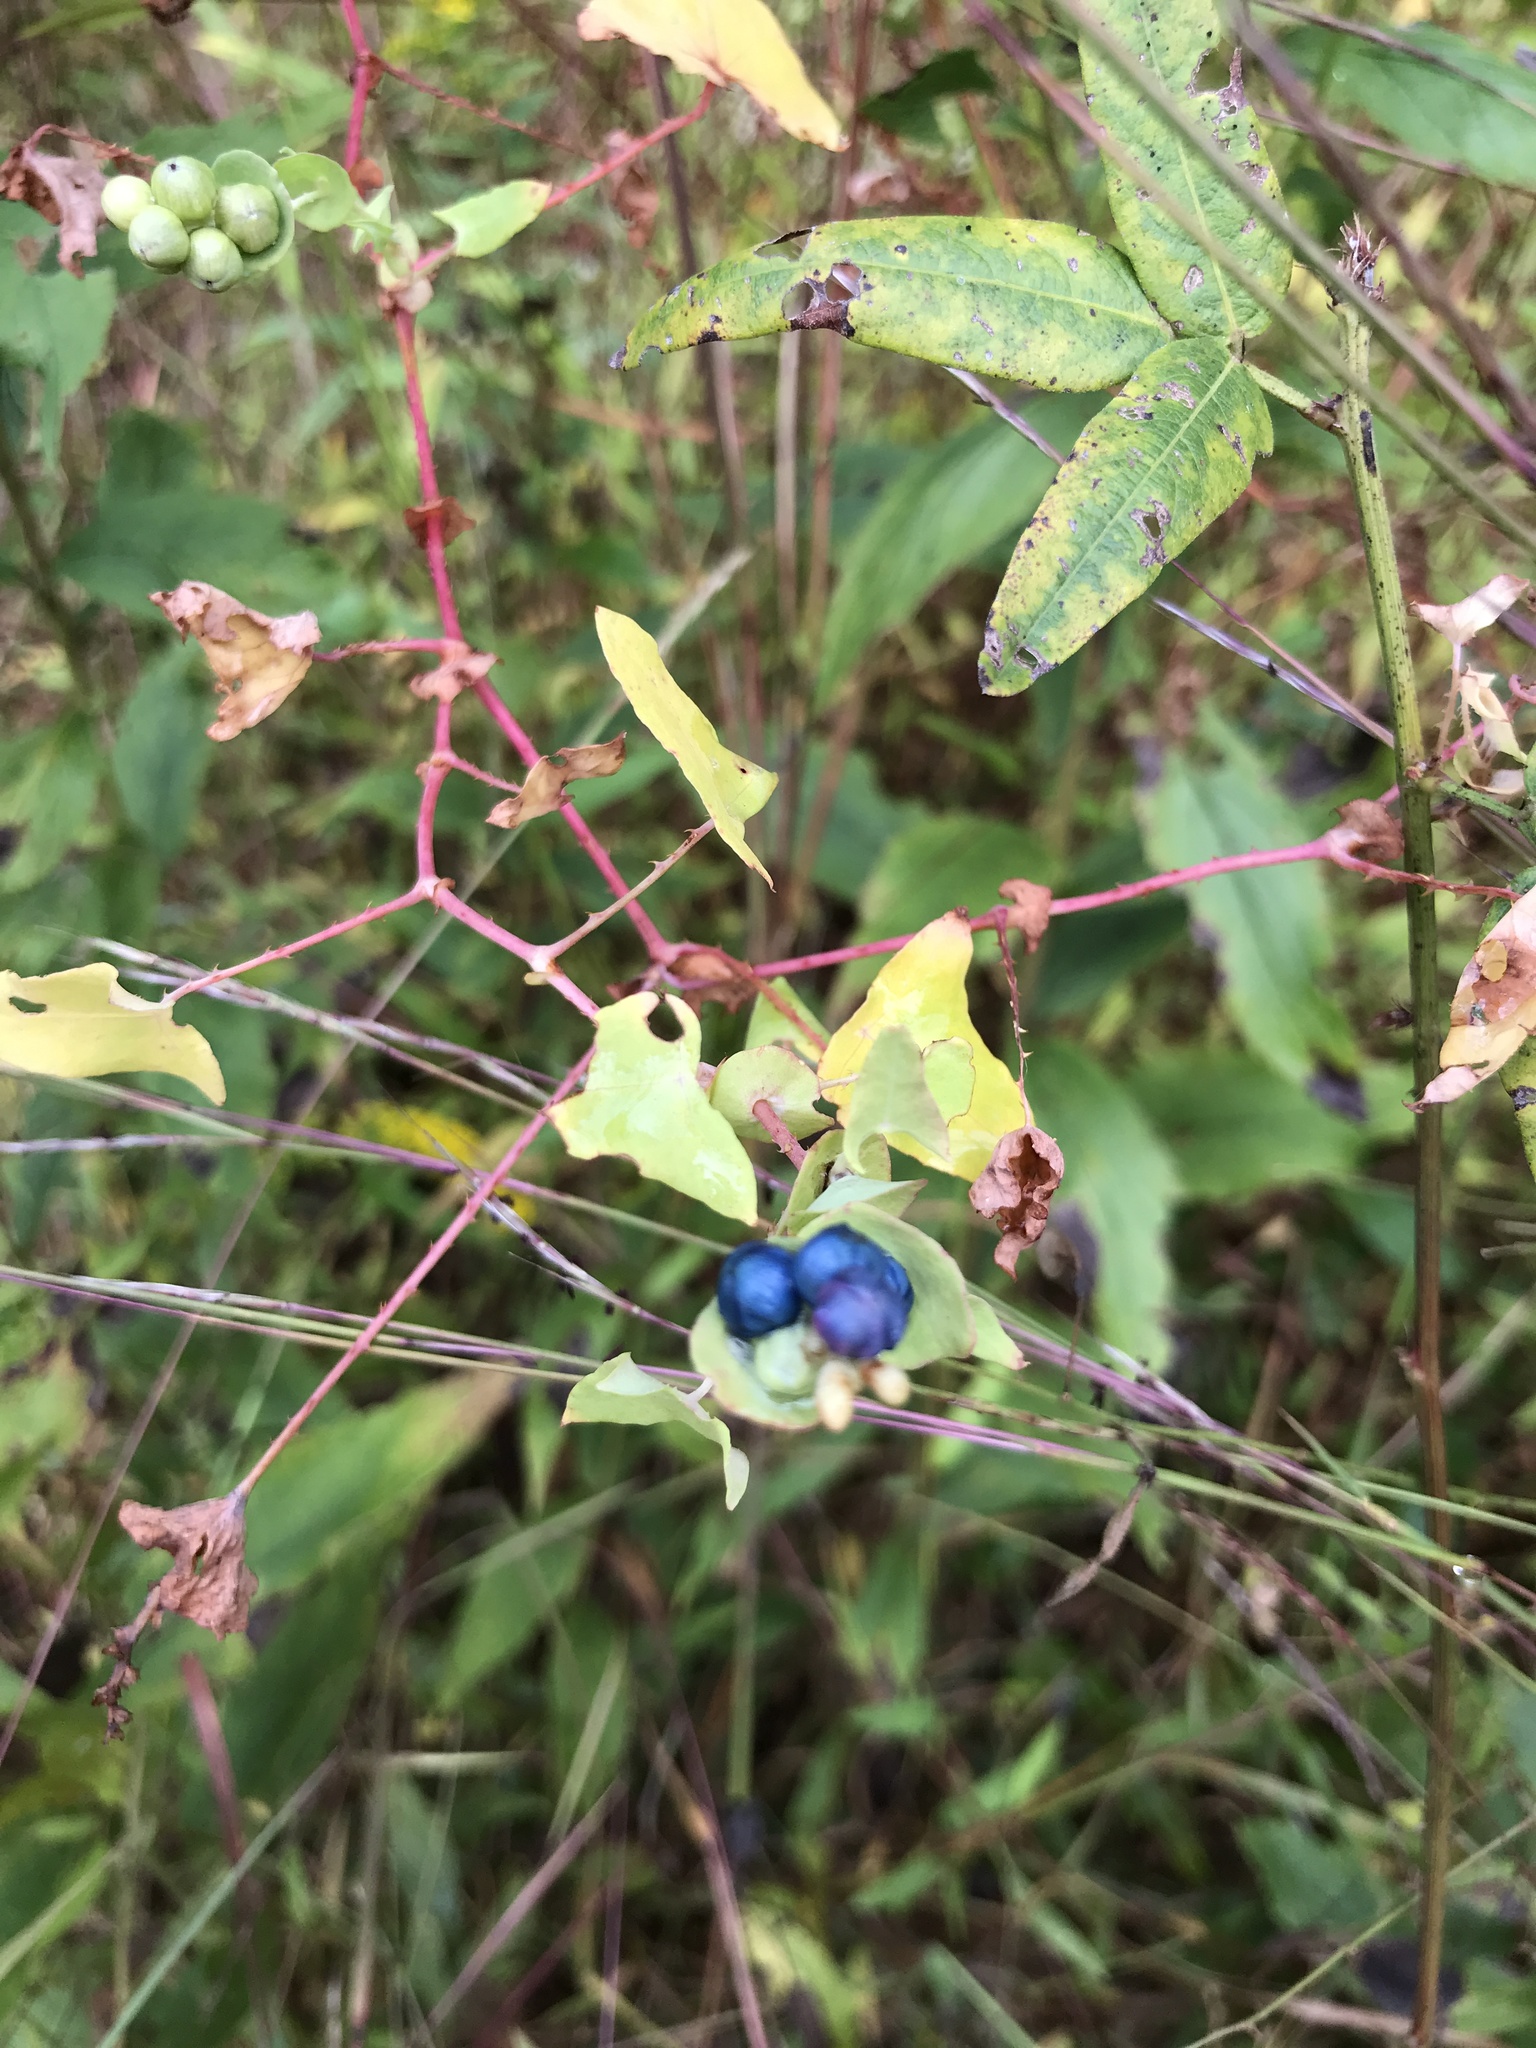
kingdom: Plantae
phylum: Tracheophyta
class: Magnoliopsida
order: Caryophyllales
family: Polygonaceae
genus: Persicaria
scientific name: Persicaria perfoliata
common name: Asiatic tearthumb
